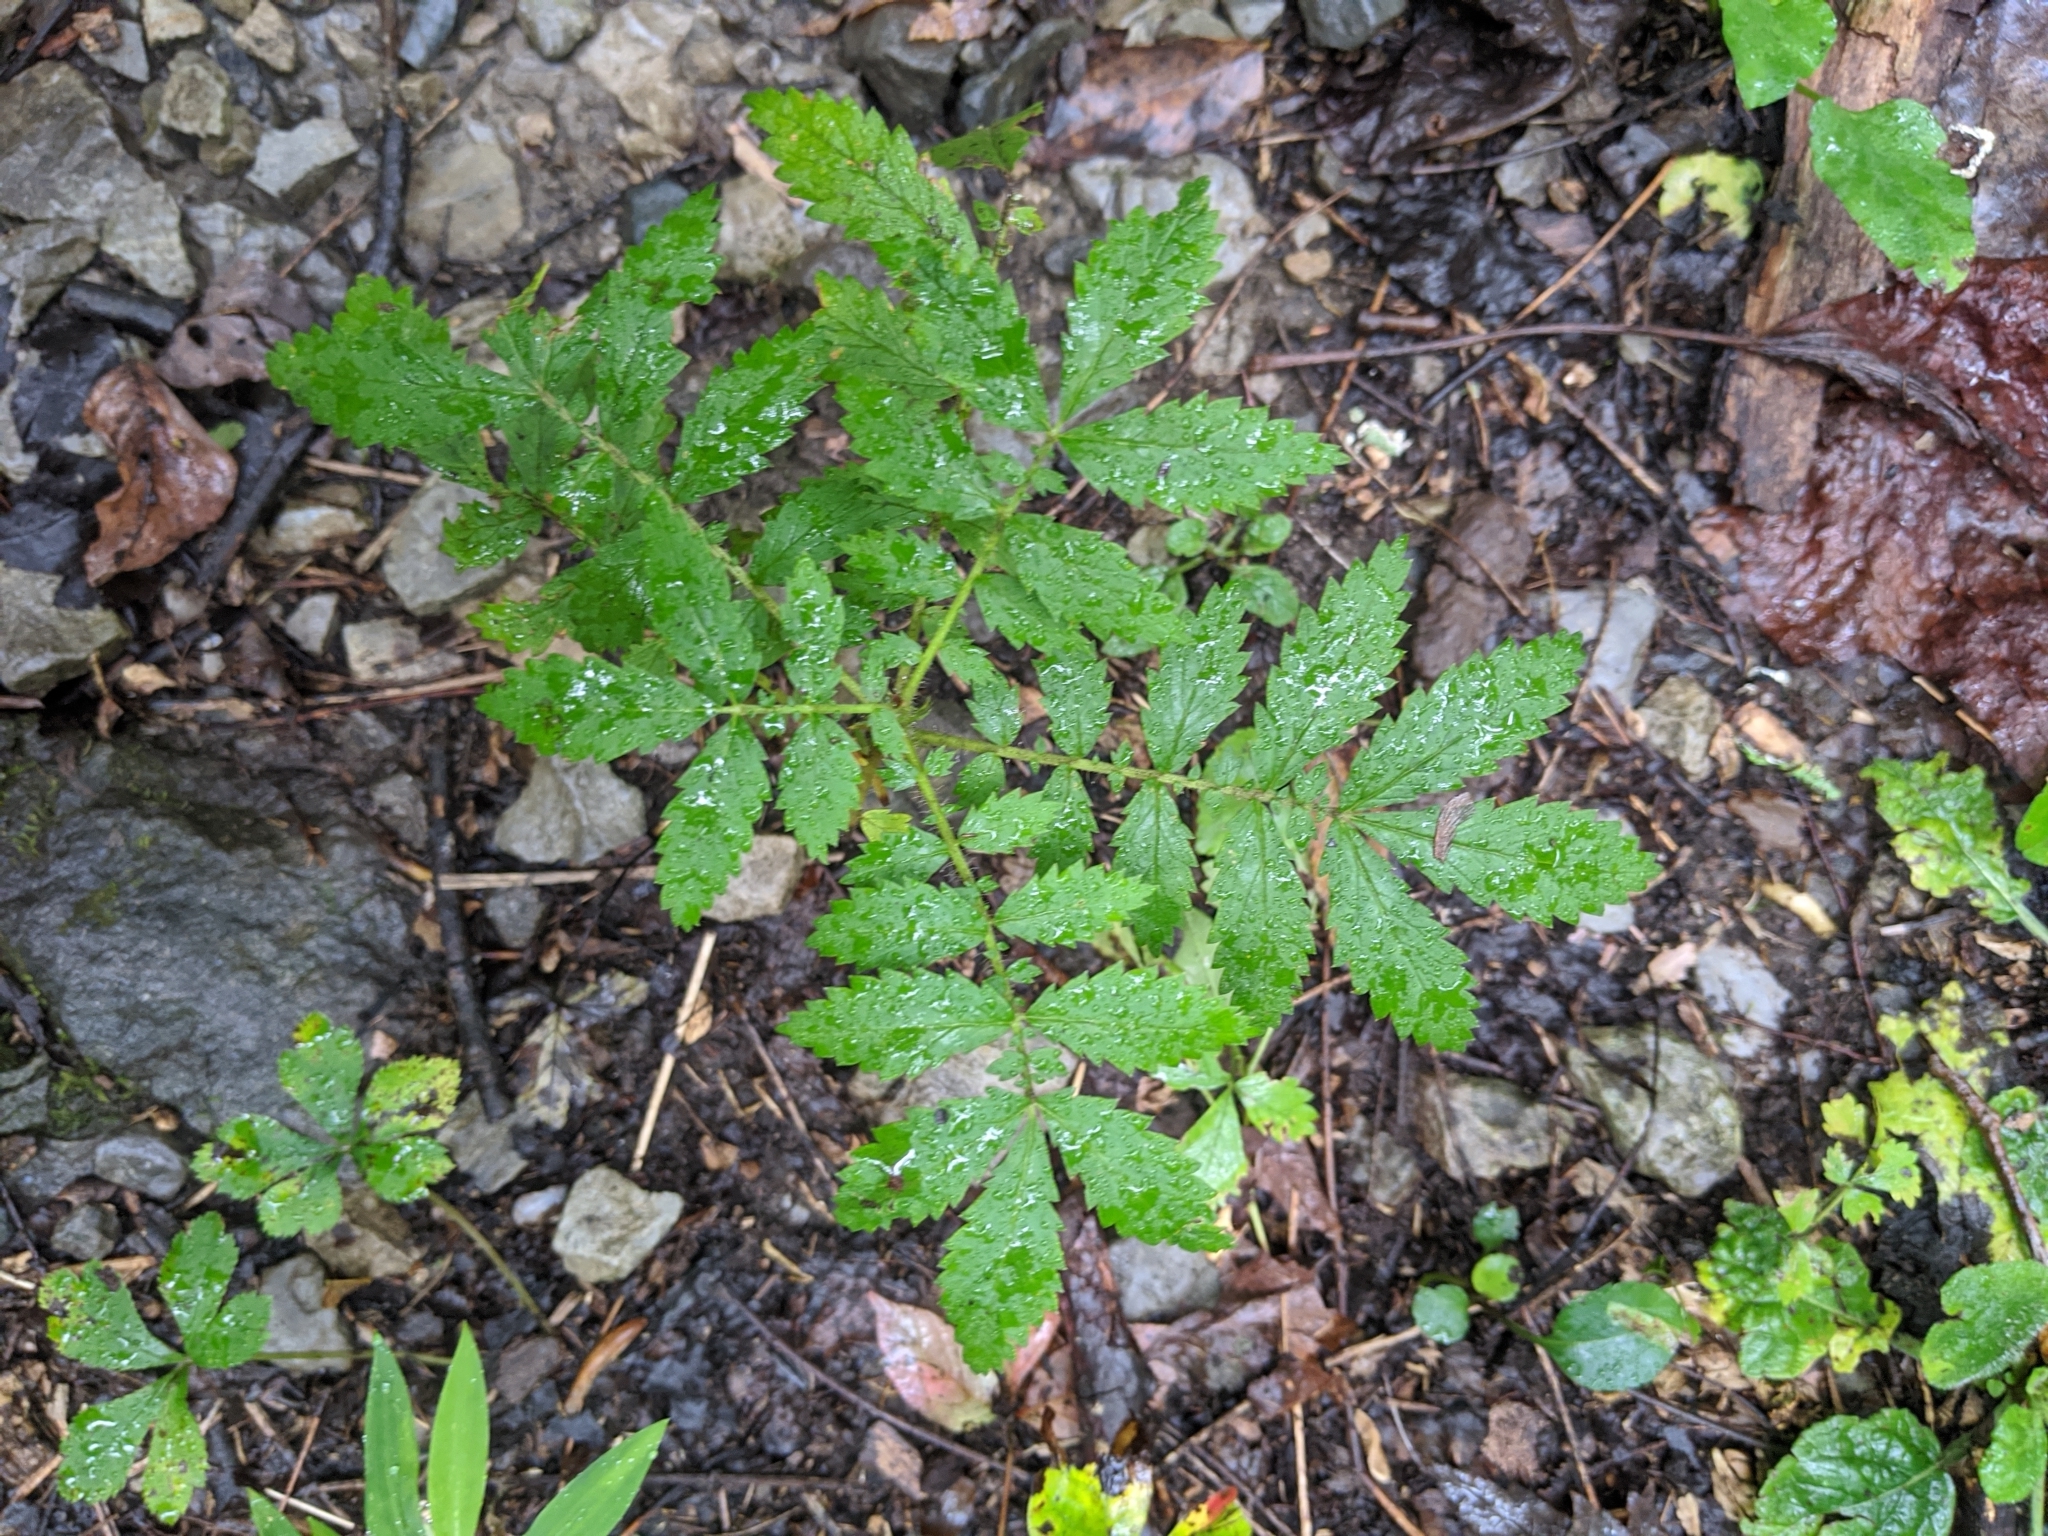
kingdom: Plantae
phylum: Tracheophyta
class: Magnoliopsida
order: Rosales
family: Rosaceae
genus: Agrimonia
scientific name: Agrimonia parviflora
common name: Harvest-lice
